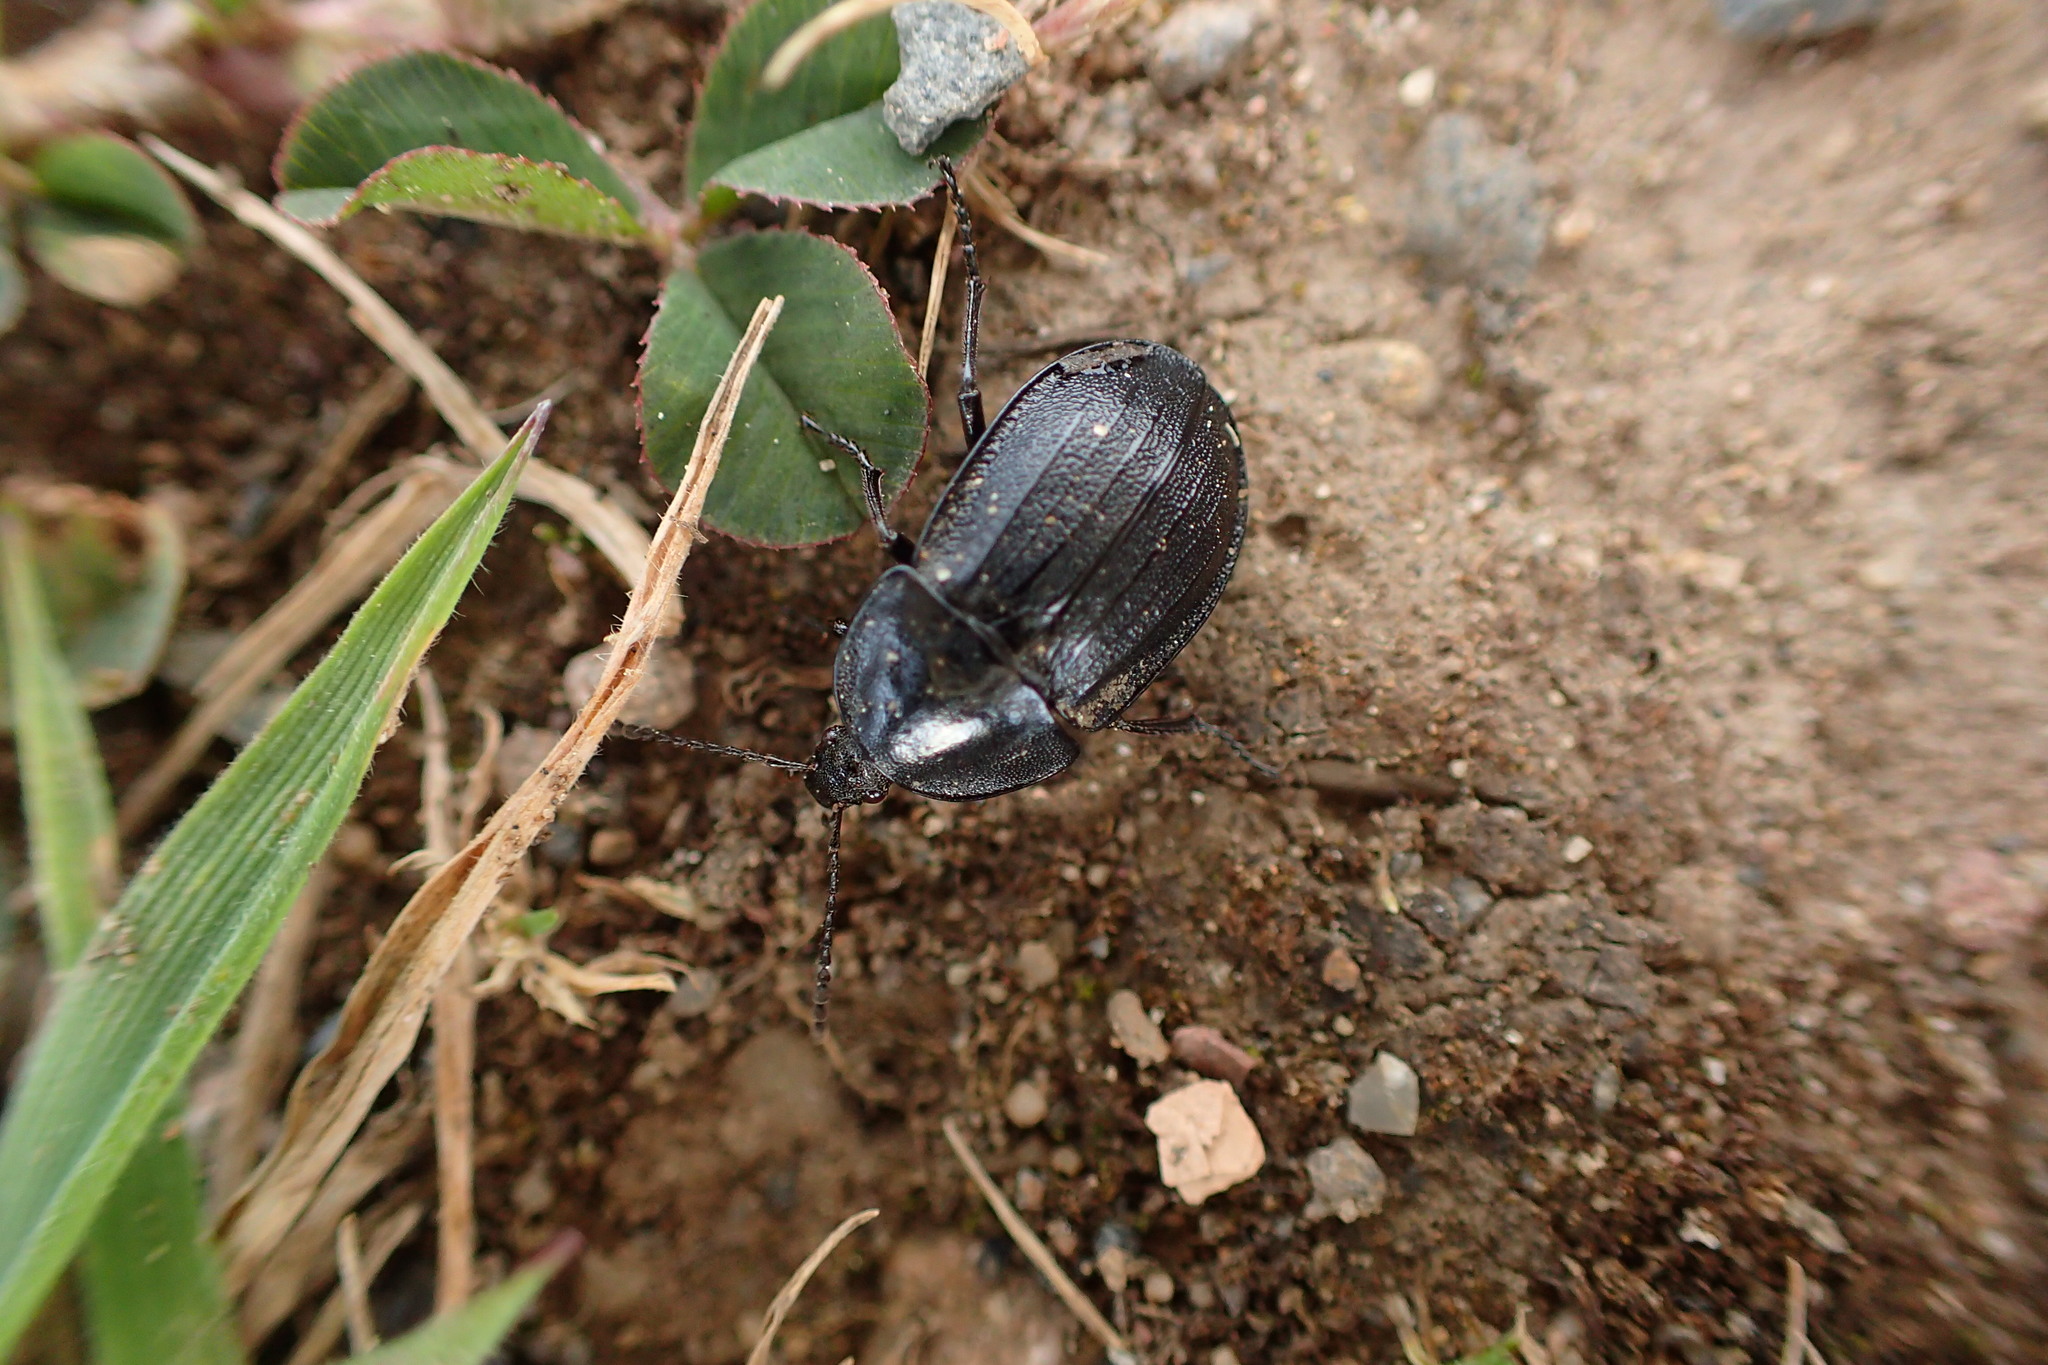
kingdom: Animalia
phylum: Arthropoda
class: Insecta
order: Coleoptera
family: Staphylinidae
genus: Silpha
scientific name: Silpha atrata
